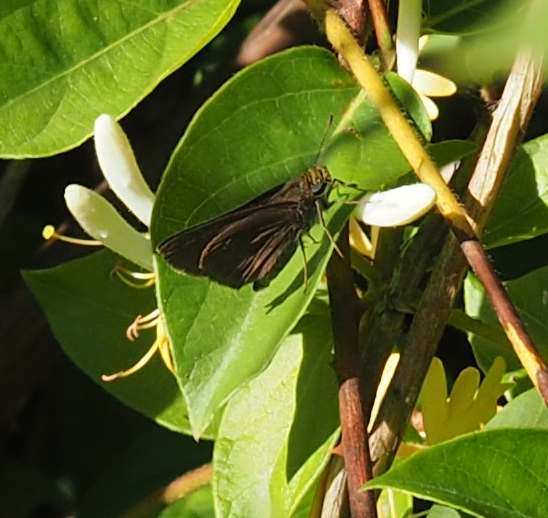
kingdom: Animalia
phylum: Arthropoda
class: Insecta
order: Lepidoptera
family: Hesperiidae
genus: Euphyes
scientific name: Euphyes vestris
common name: Dun skipper
